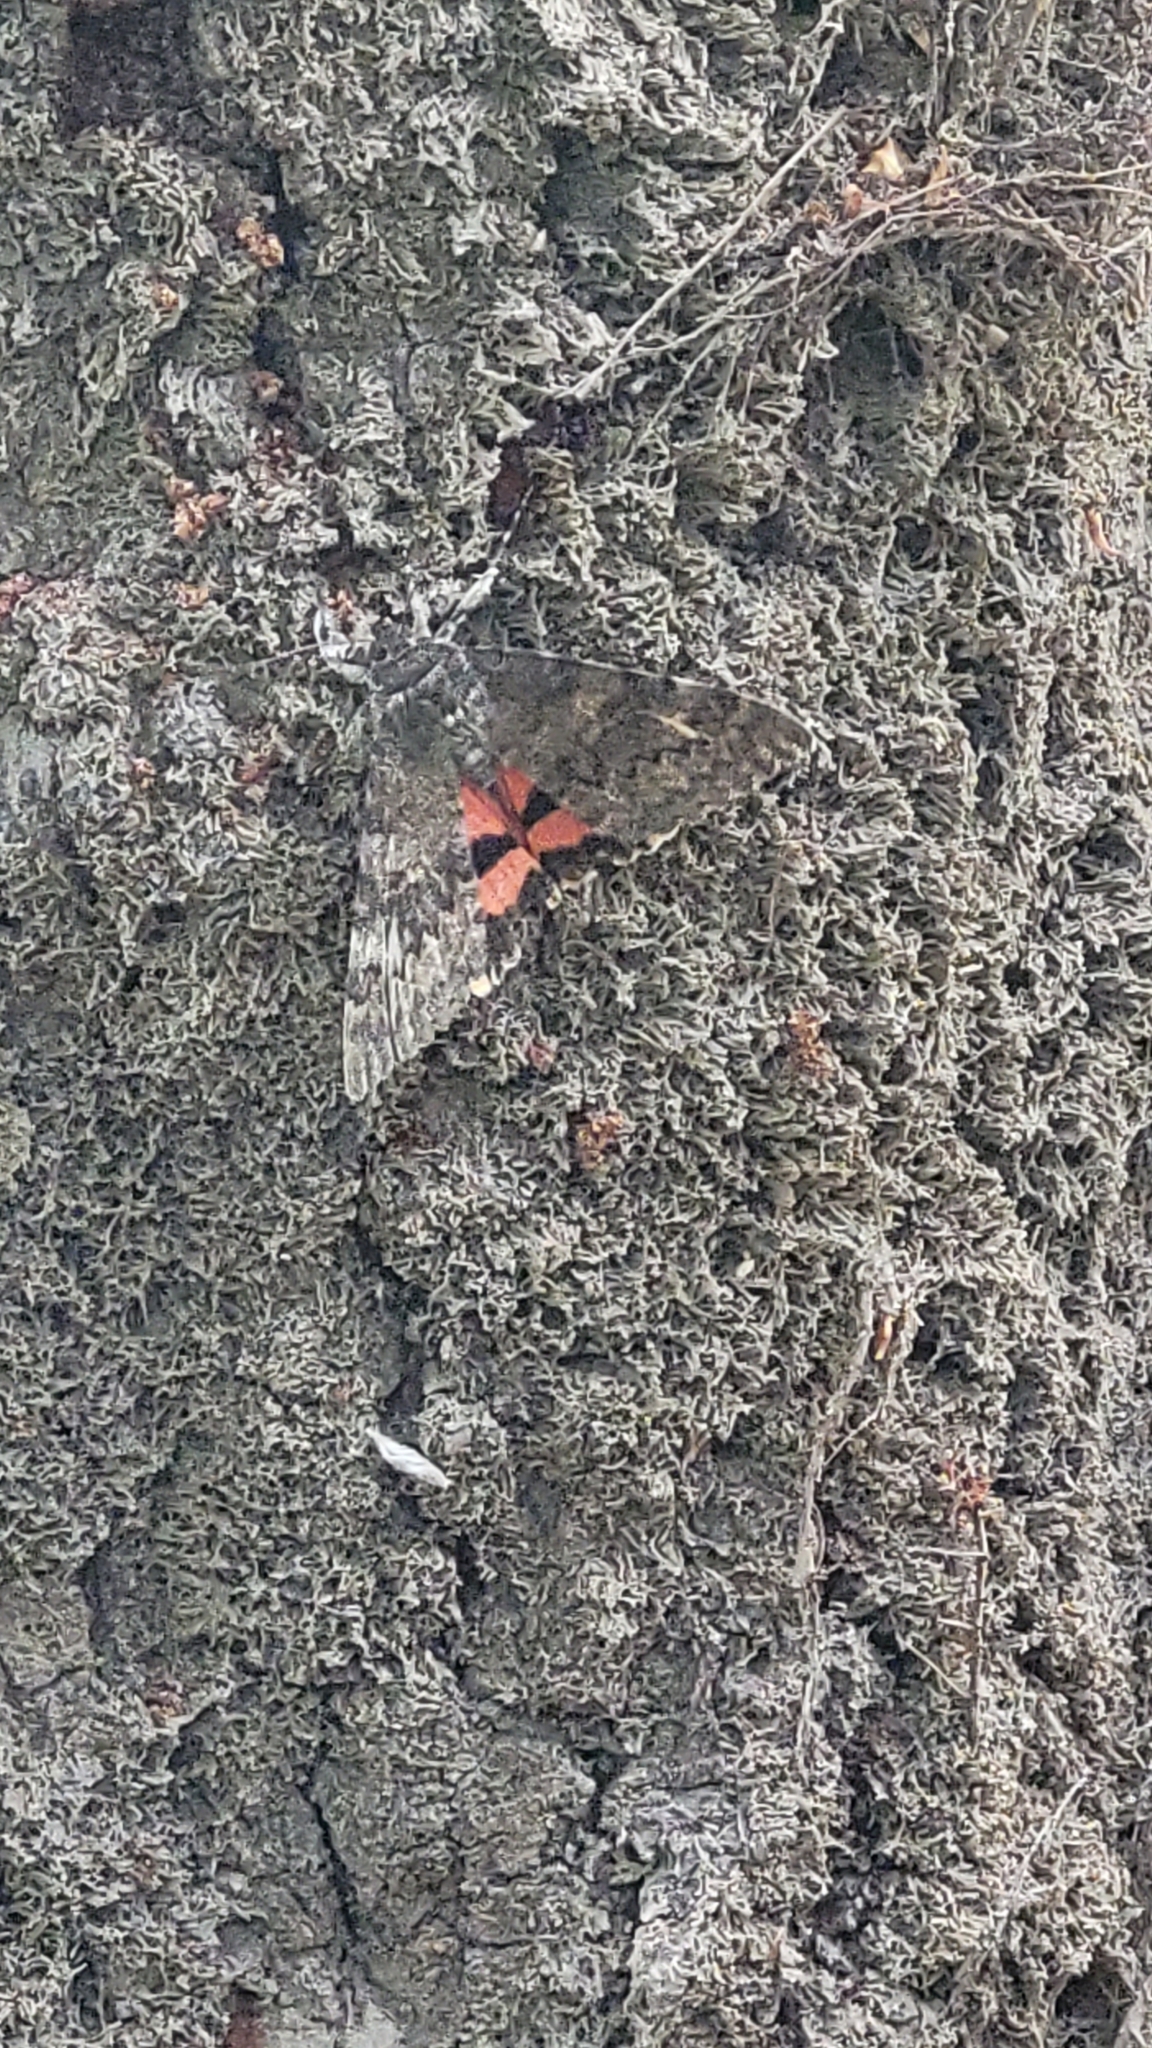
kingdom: Animalia
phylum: Arthropoda
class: Insecta
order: Lepidoptera
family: Erebidae
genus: Catocala
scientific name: Catocala deducta
